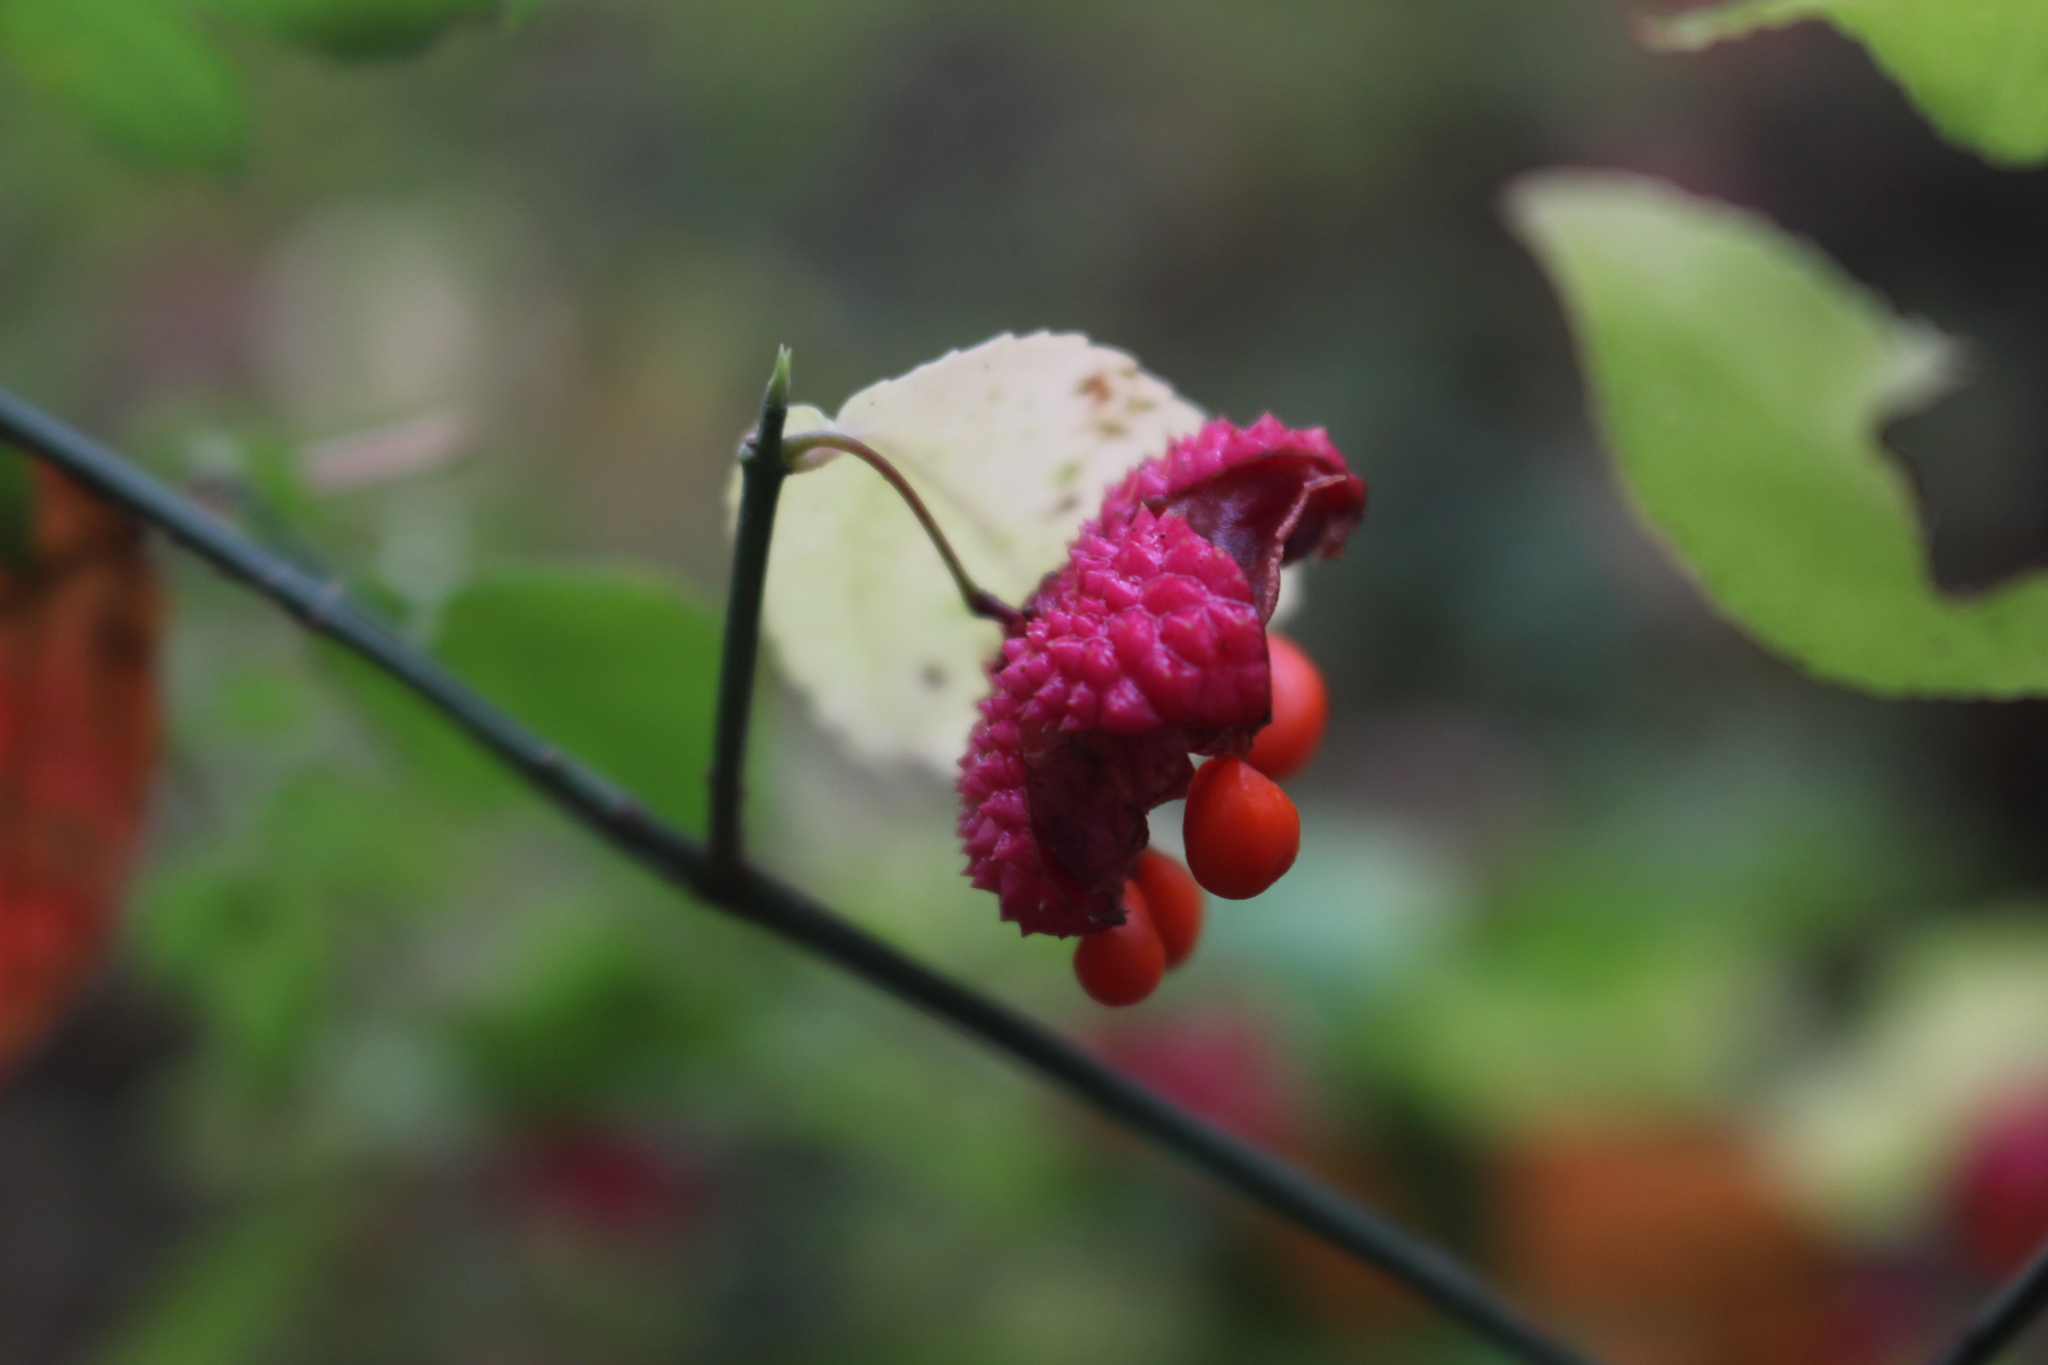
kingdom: Plantae
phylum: Tracheophyta
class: Magnoliopsida
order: Celastrales
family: Celastraceae
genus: Euonymus
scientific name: Euonymus americanus
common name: Bursting-heart
